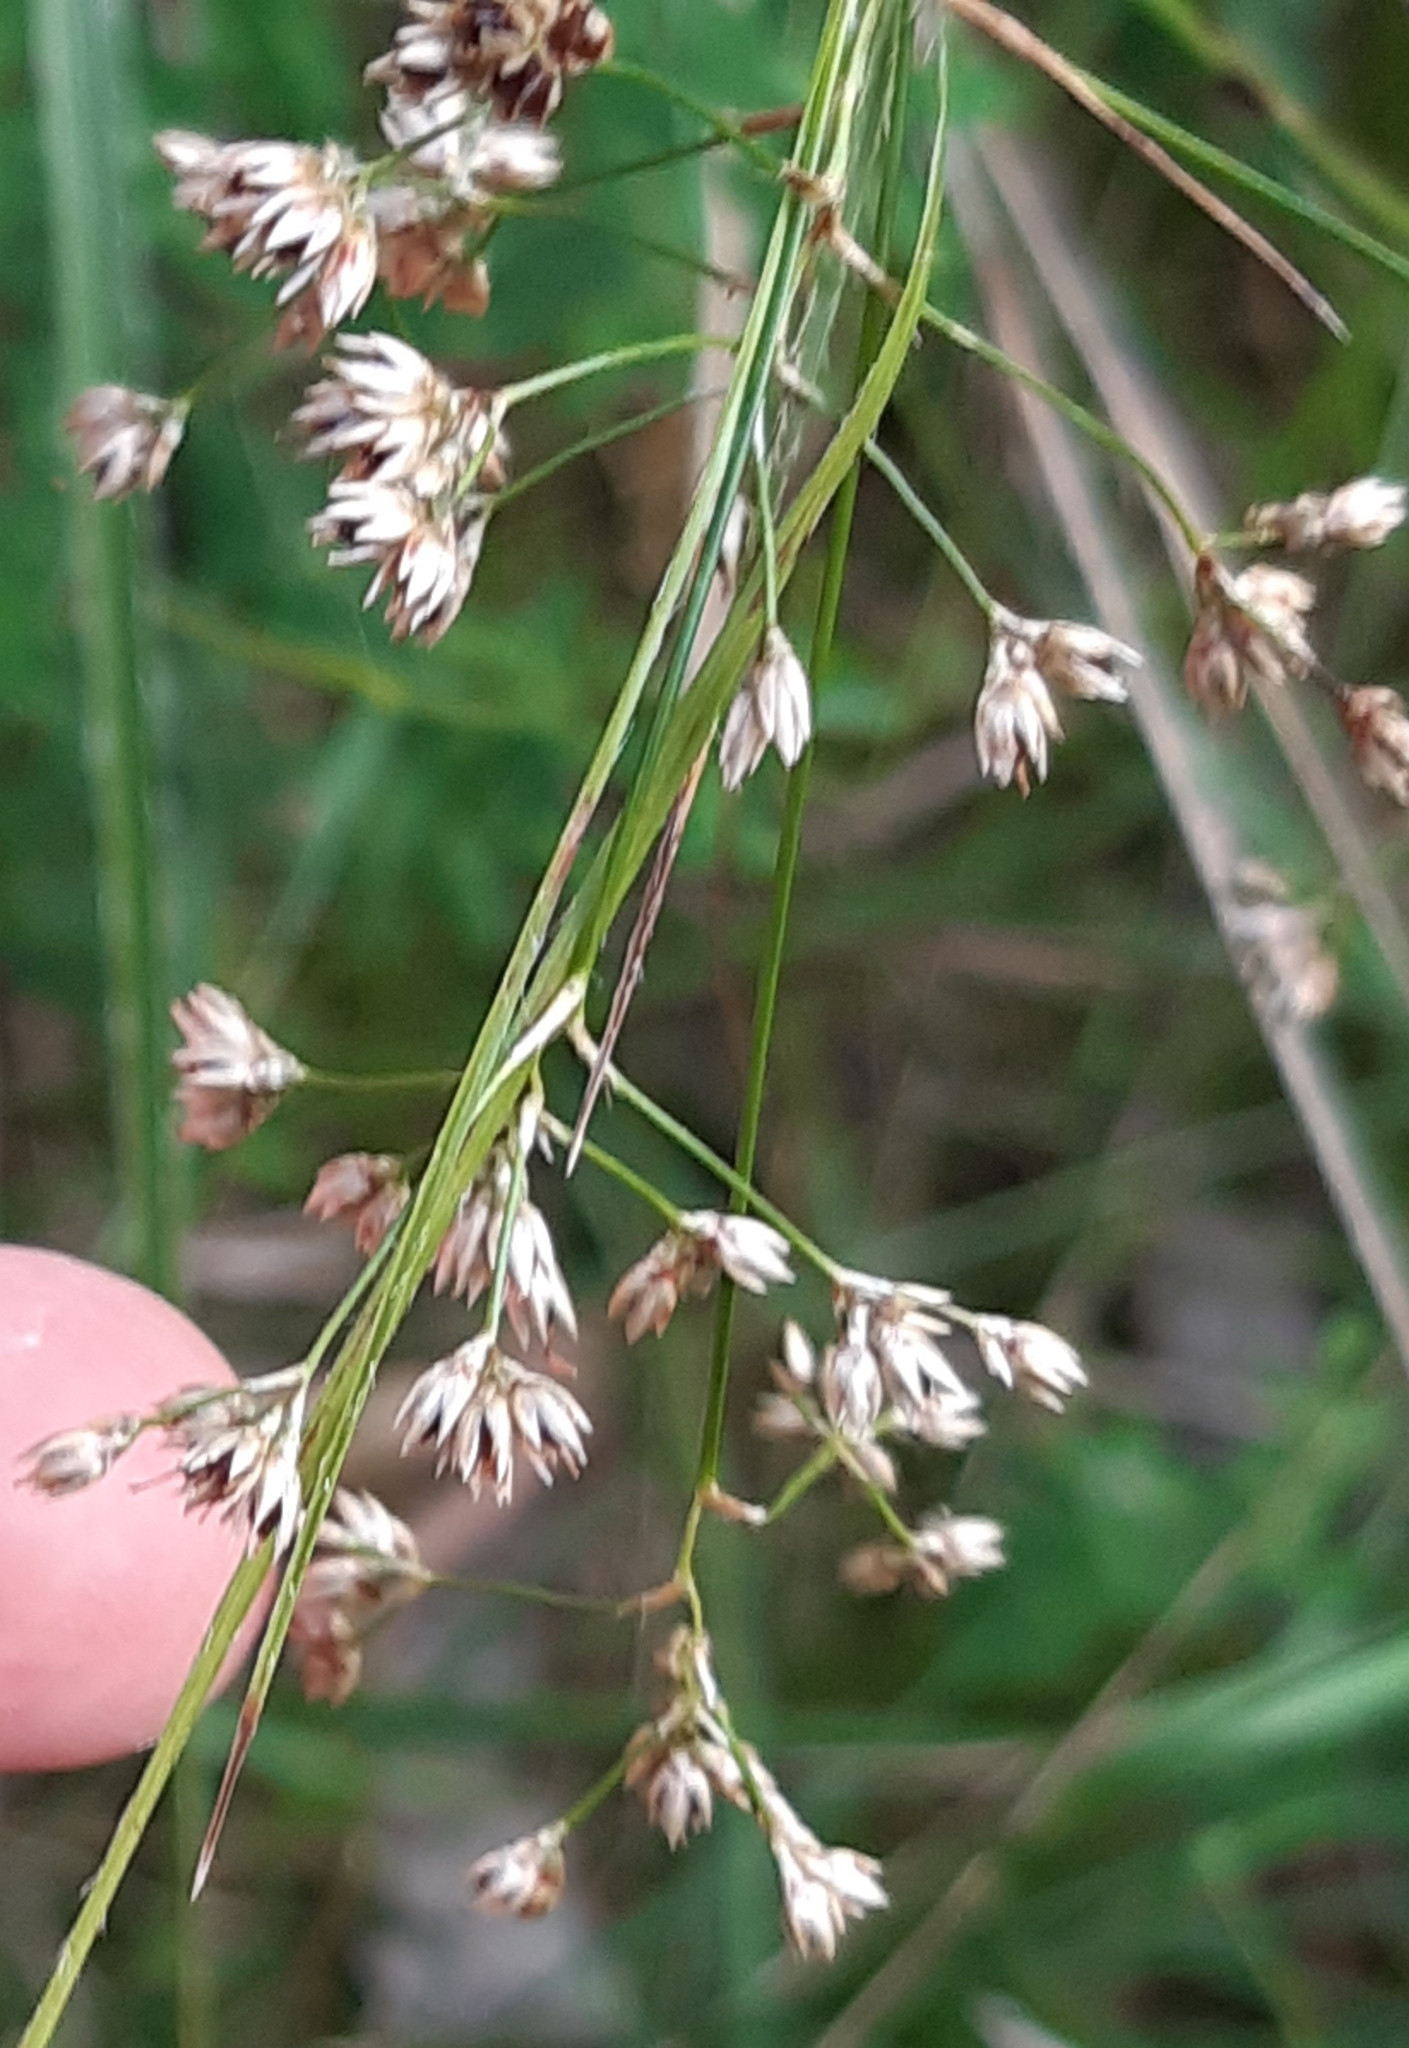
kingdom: Plantae
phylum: Tracheophyta
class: Liliopsida
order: Poales
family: Juncaceae
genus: Luzula
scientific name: Luzula luzuloides
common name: White wood-rush
